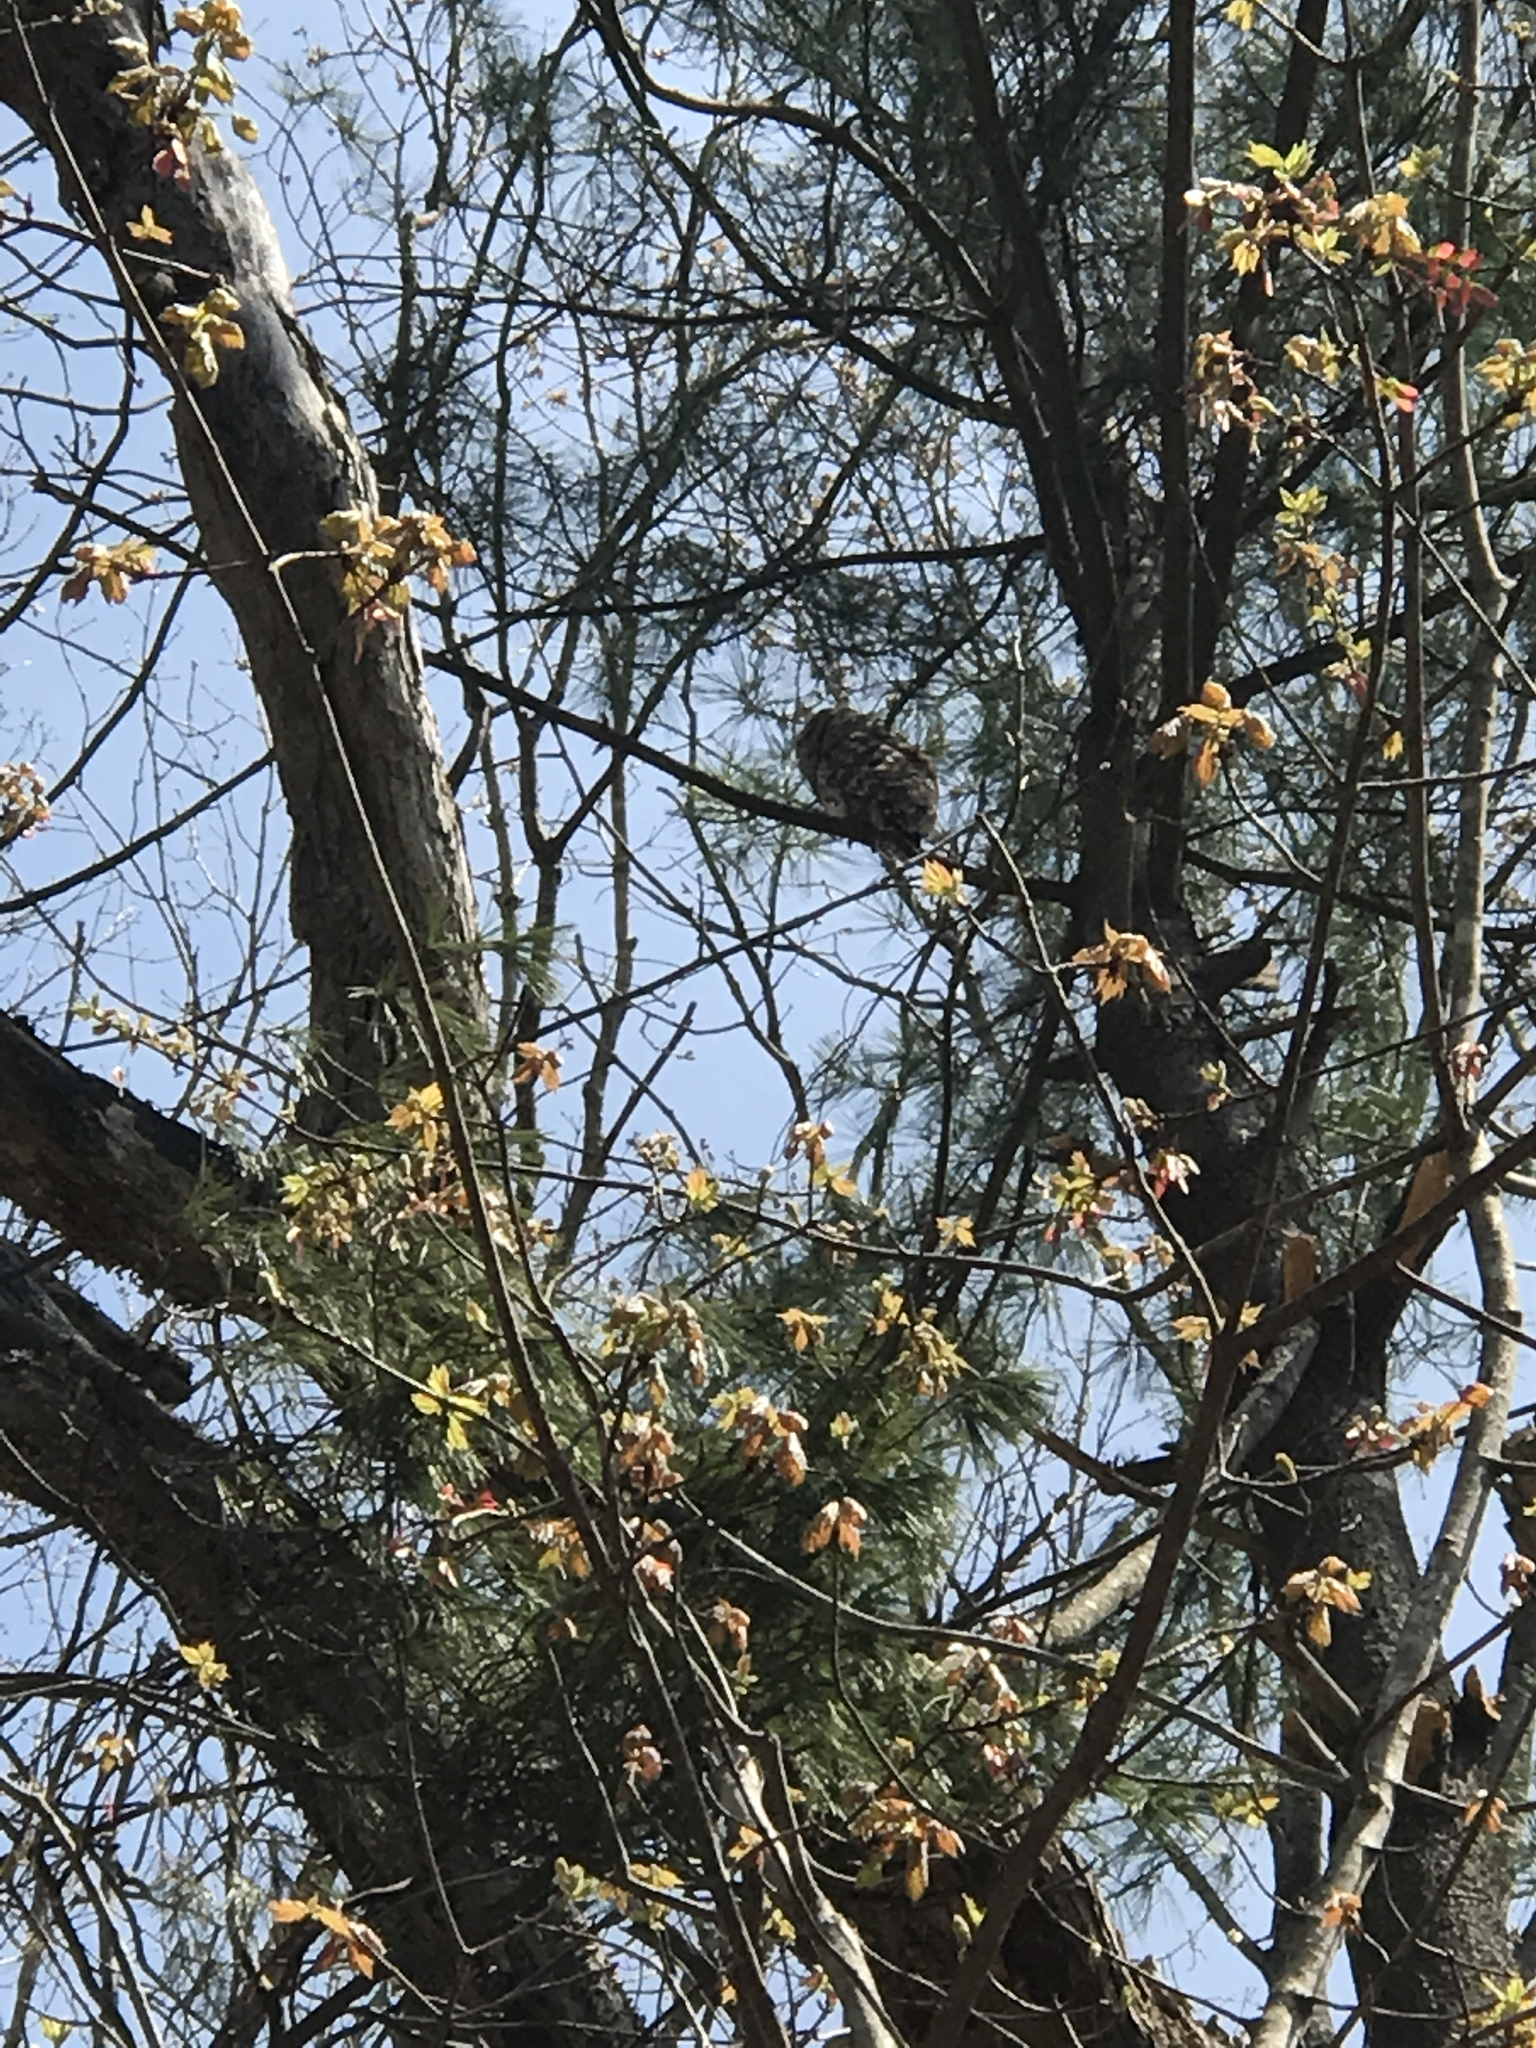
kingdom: Animalia
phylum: Chordata
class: Aves
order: Strigiformes
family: Strigidae
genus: Strix
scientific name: Strix varia
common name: Barred owl
